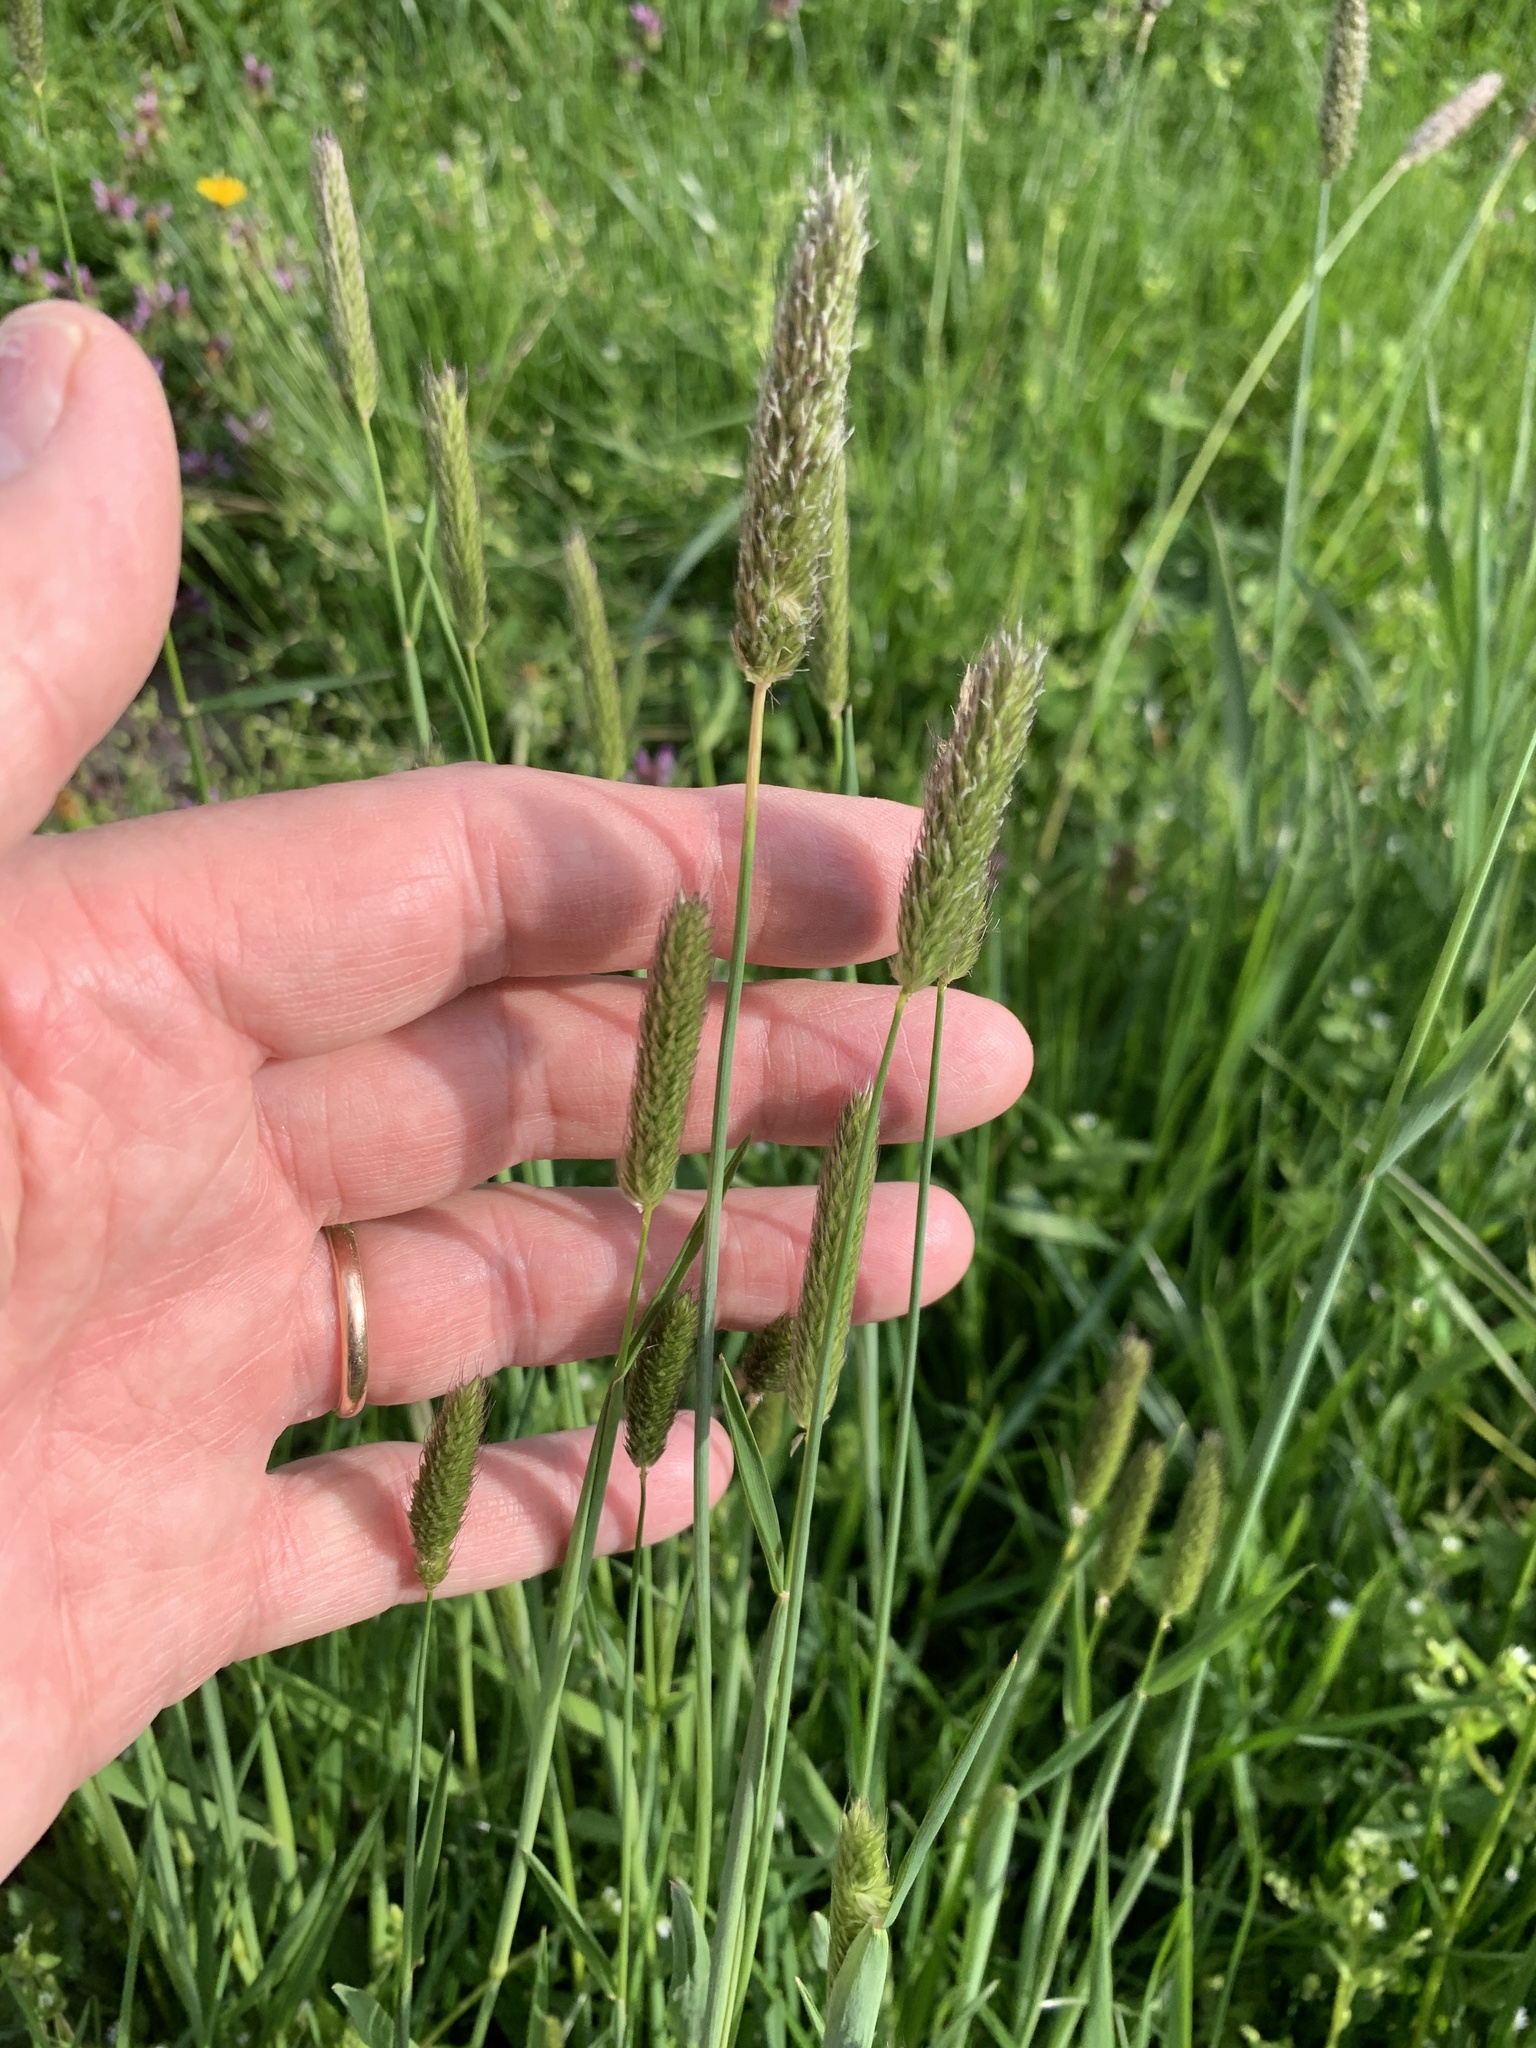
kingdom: Plantae
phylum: Tracheophyta
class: Liliopsida
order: Poales
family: Poaceae
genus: Alopecurus
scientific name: Alopecurus pratensis
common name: Meadow foxtail
